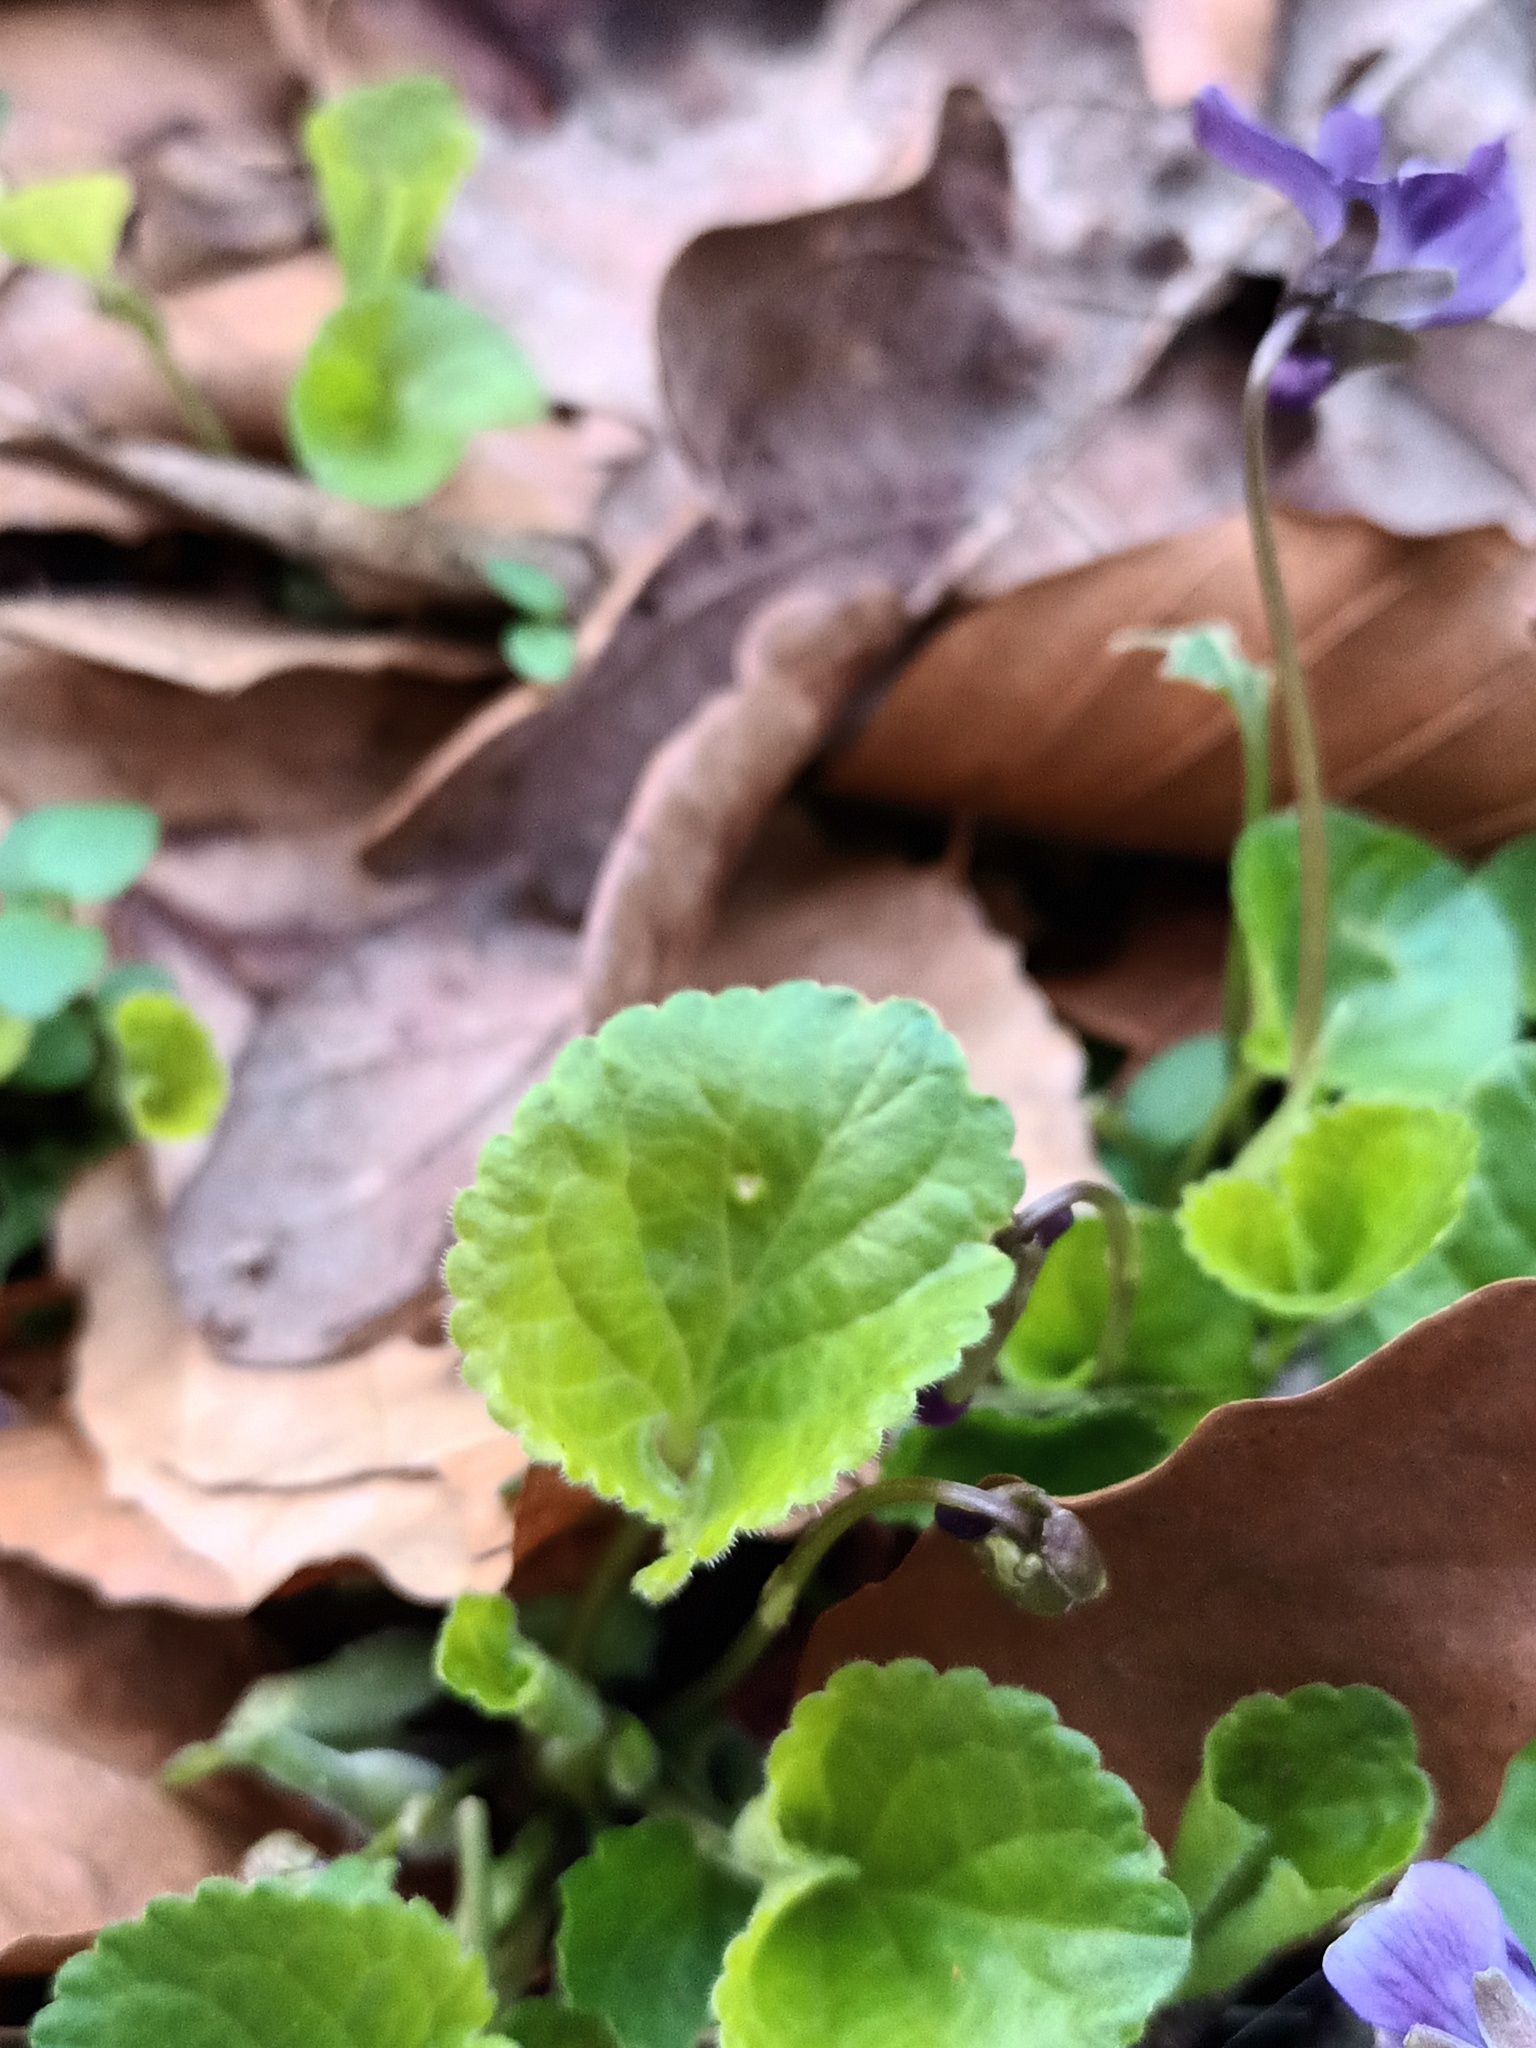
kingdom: Plantae
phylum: Tracheophyta
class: Magnoliopsida
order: Malpighiales
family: Violaceae
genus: Viola
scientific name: Viola odorata
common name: Sweet violet
